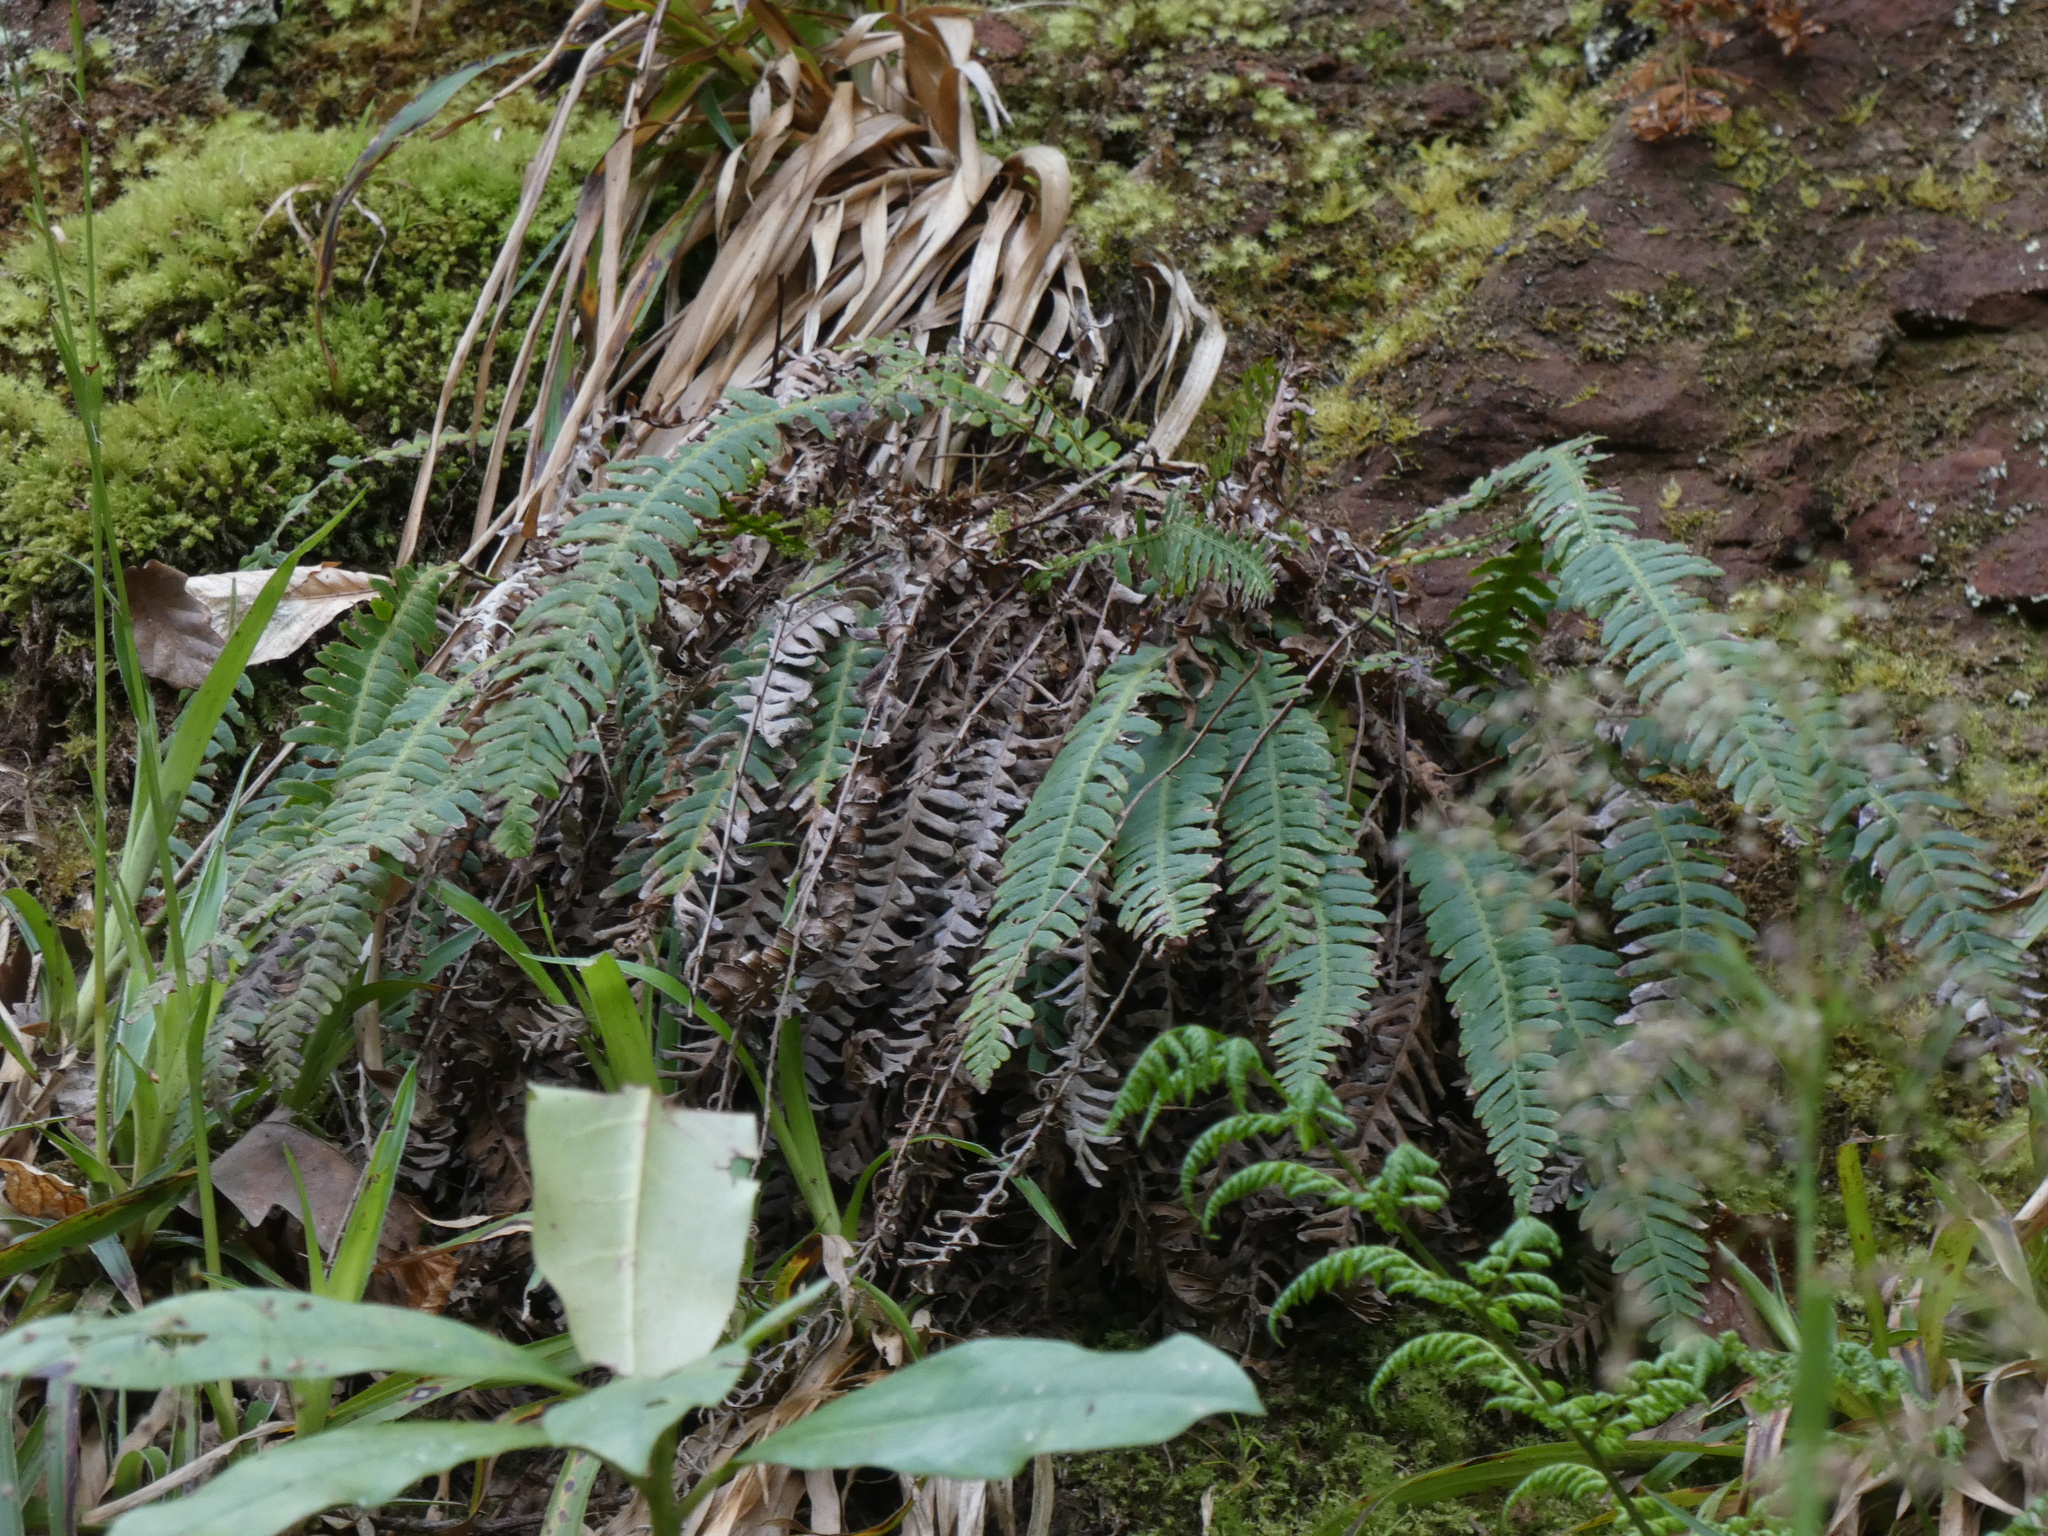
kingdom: Plantae
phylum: Tracheophyta
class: Polypodiopsida
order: Polypodiales
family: Blechnaceae
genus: Struthiopteris
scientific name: Struthiopteris spicant
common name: Deer fern
